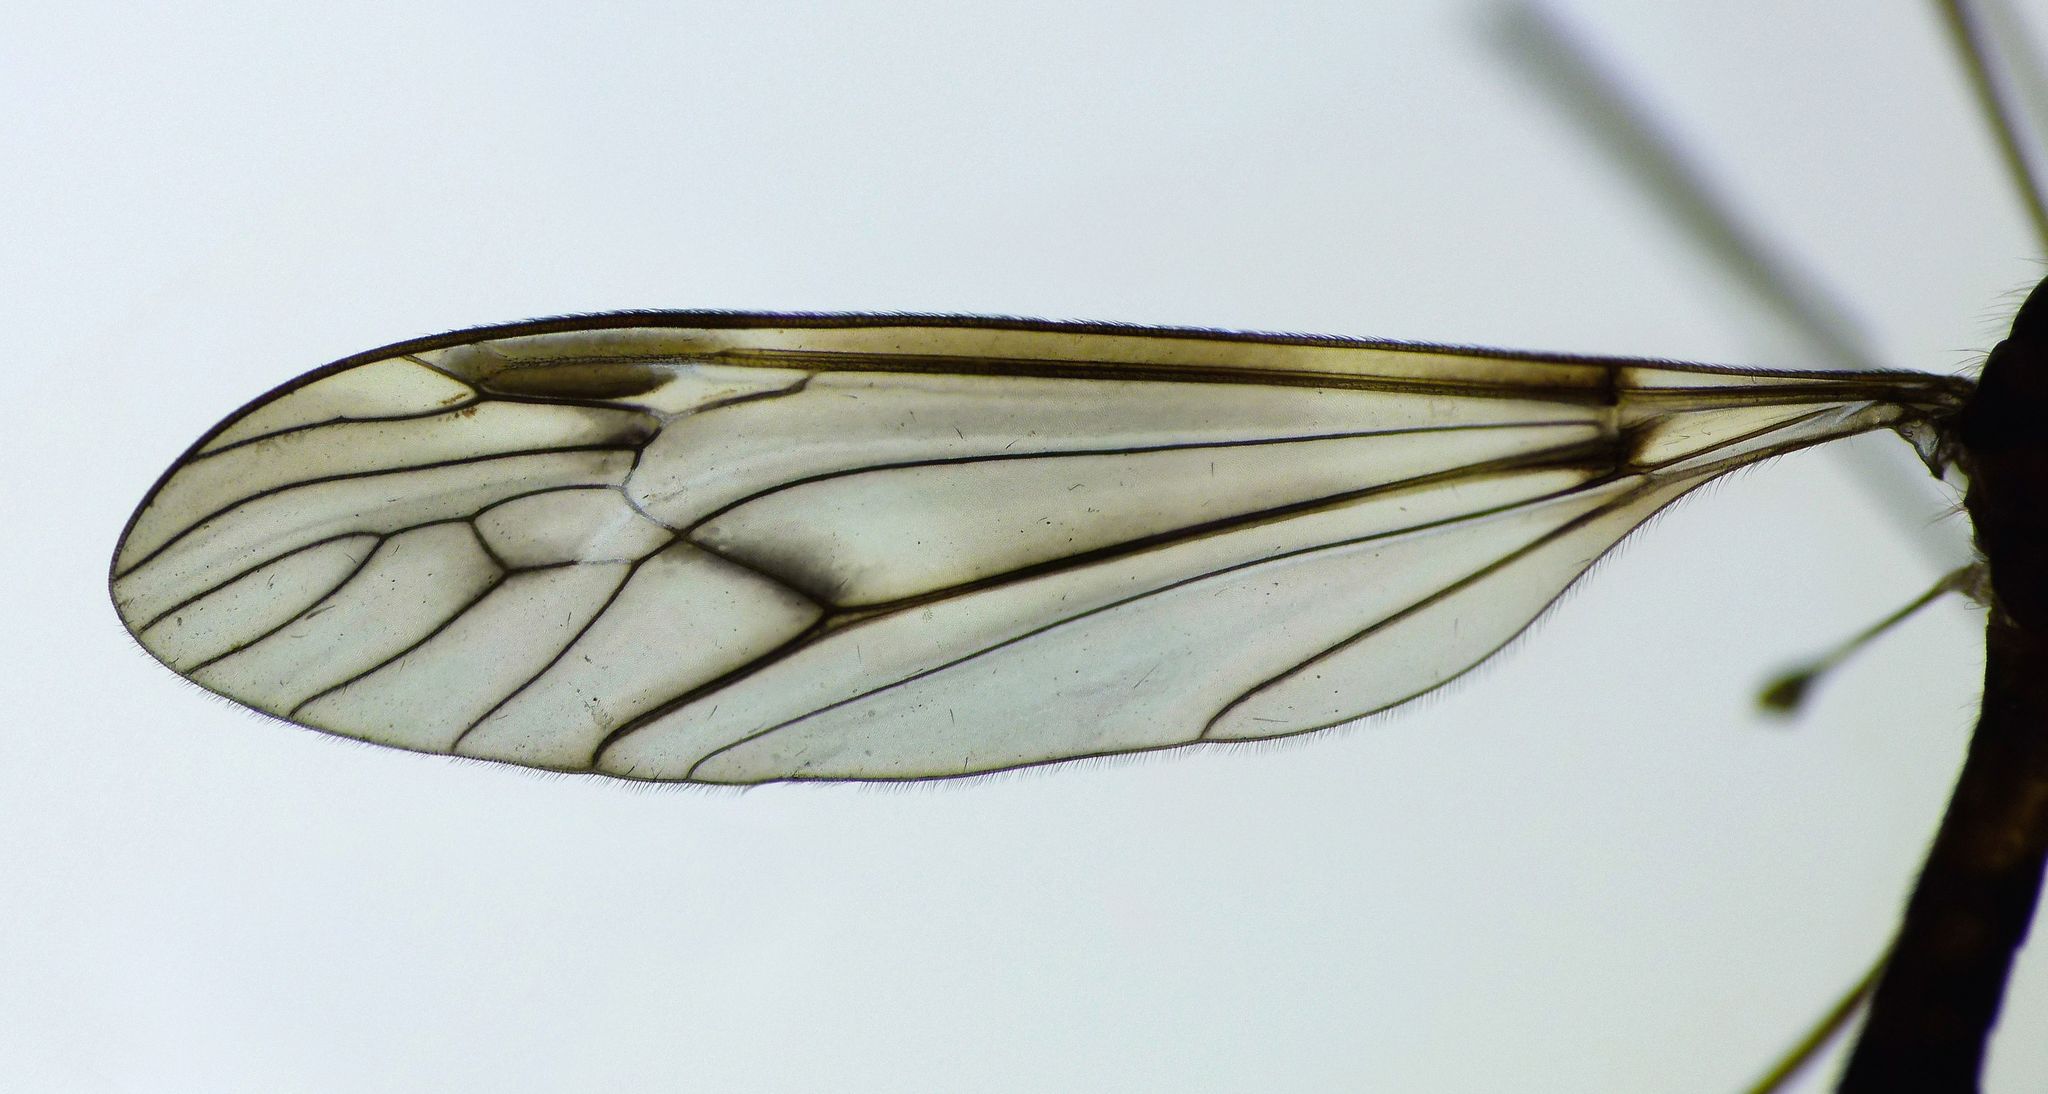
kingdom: Animalia
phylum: Arthropoda
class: Insecta
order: Diptera
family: Tipulidae
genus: Leptotarsus
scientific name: Leptotarsus cubitalis
